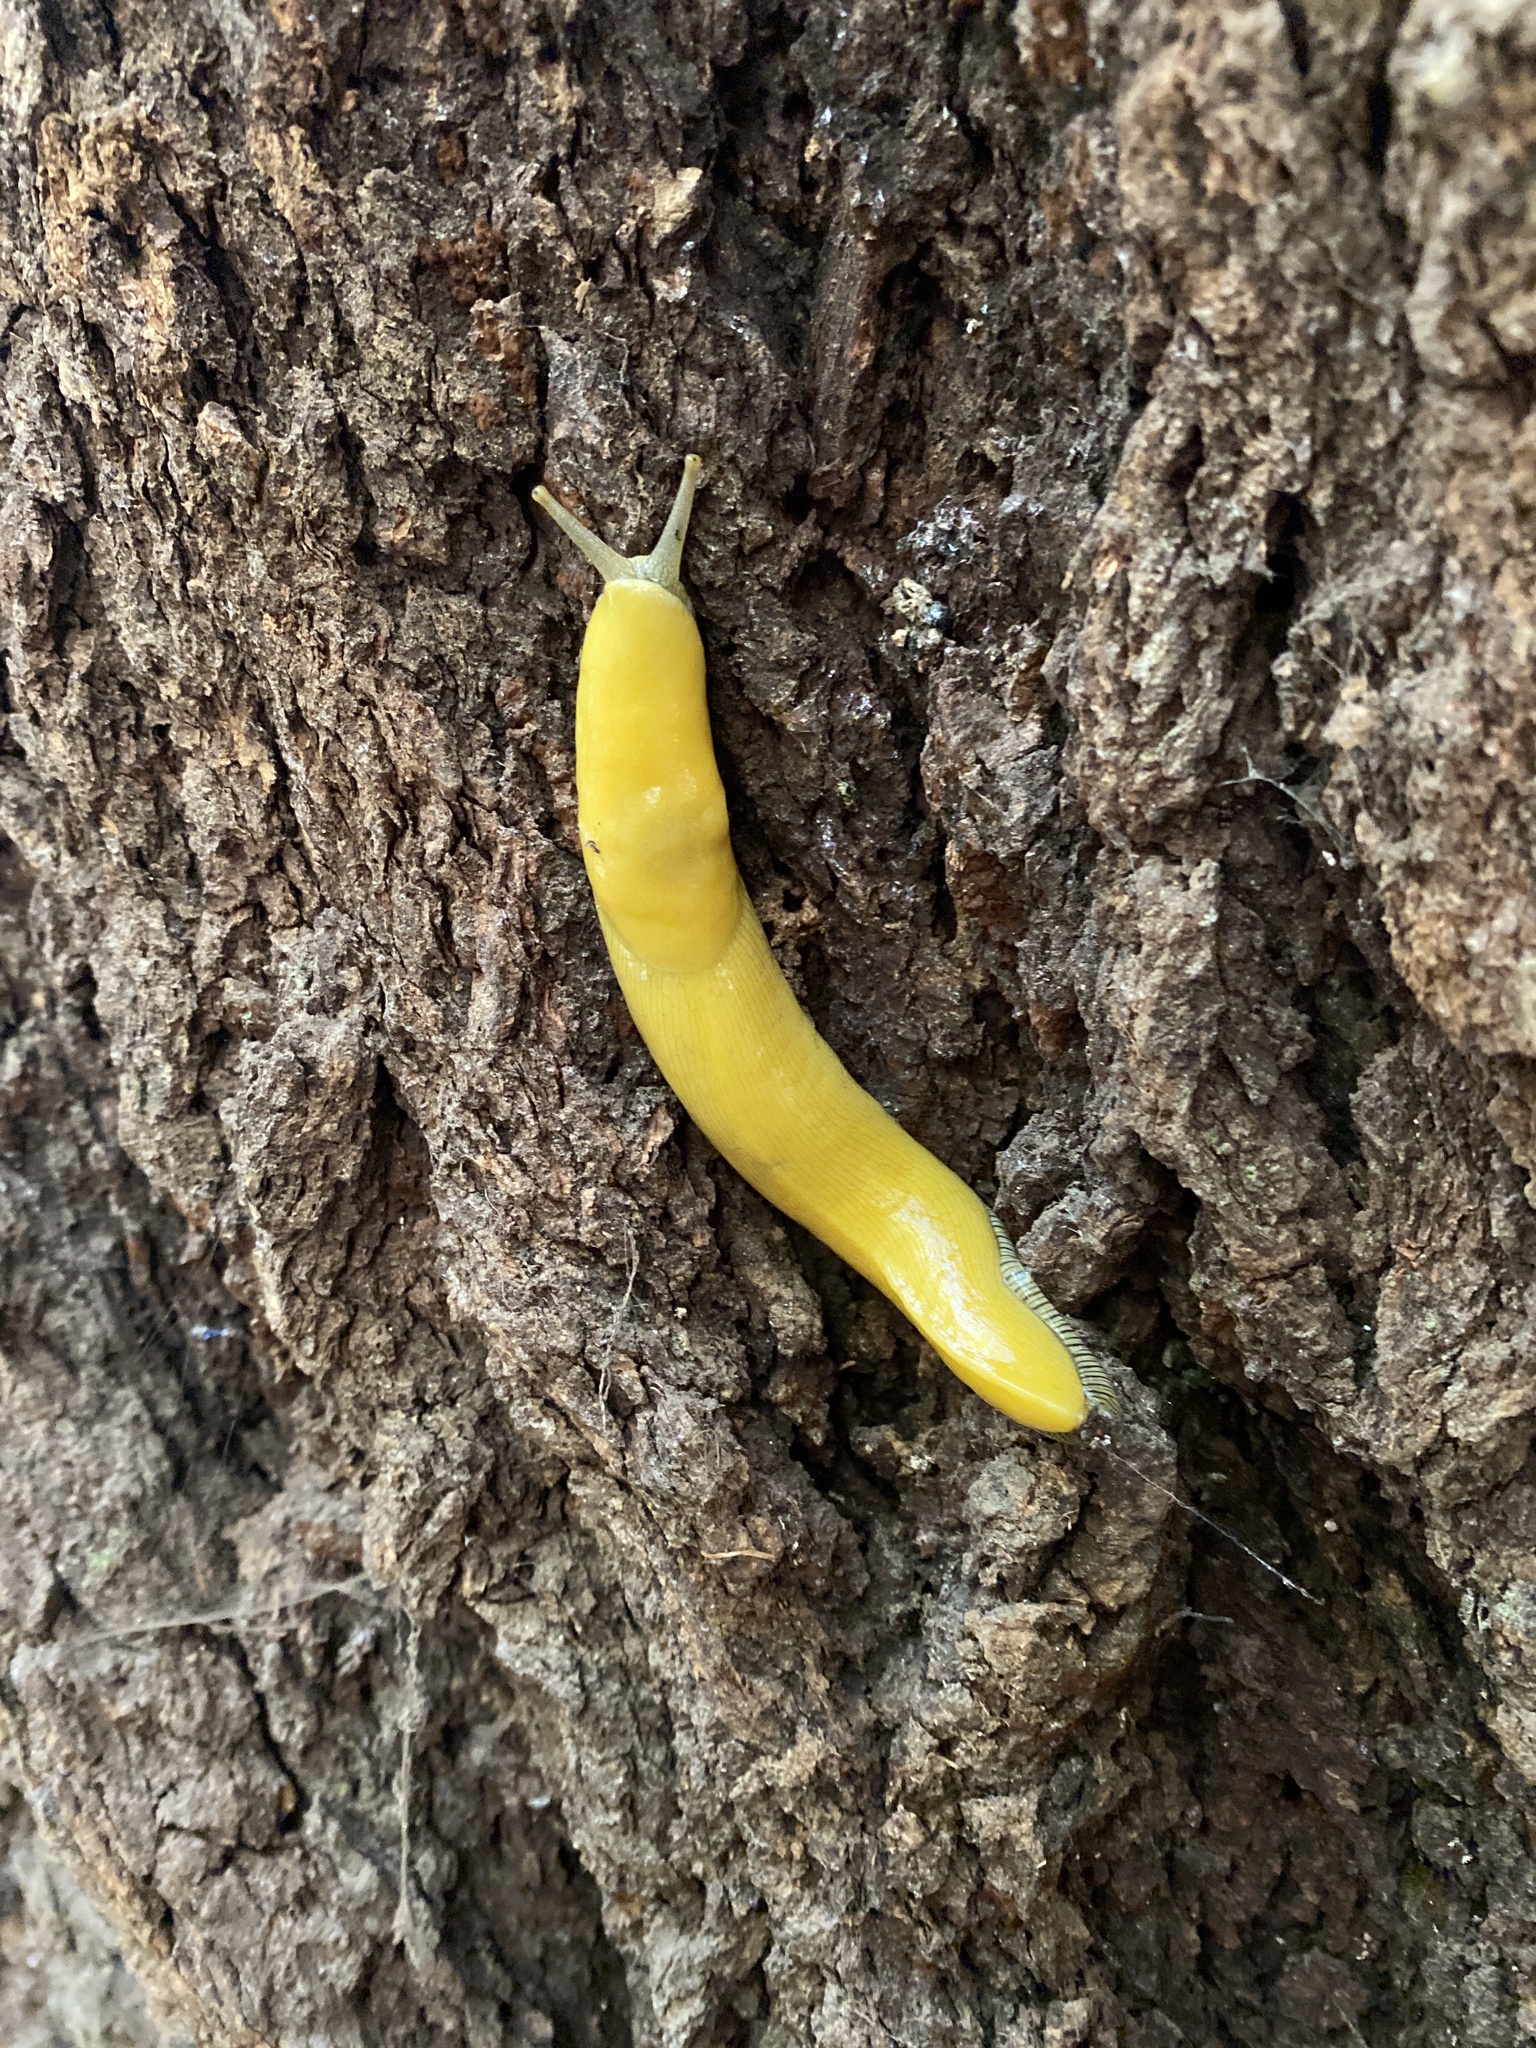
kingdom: Animalia
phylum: Mollusca
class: Gastropoda
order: Stylommatophora
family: Ariolimacidae
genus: Ariolimax
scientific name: Ariolimax dolichophallus
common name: Slender banana slug
